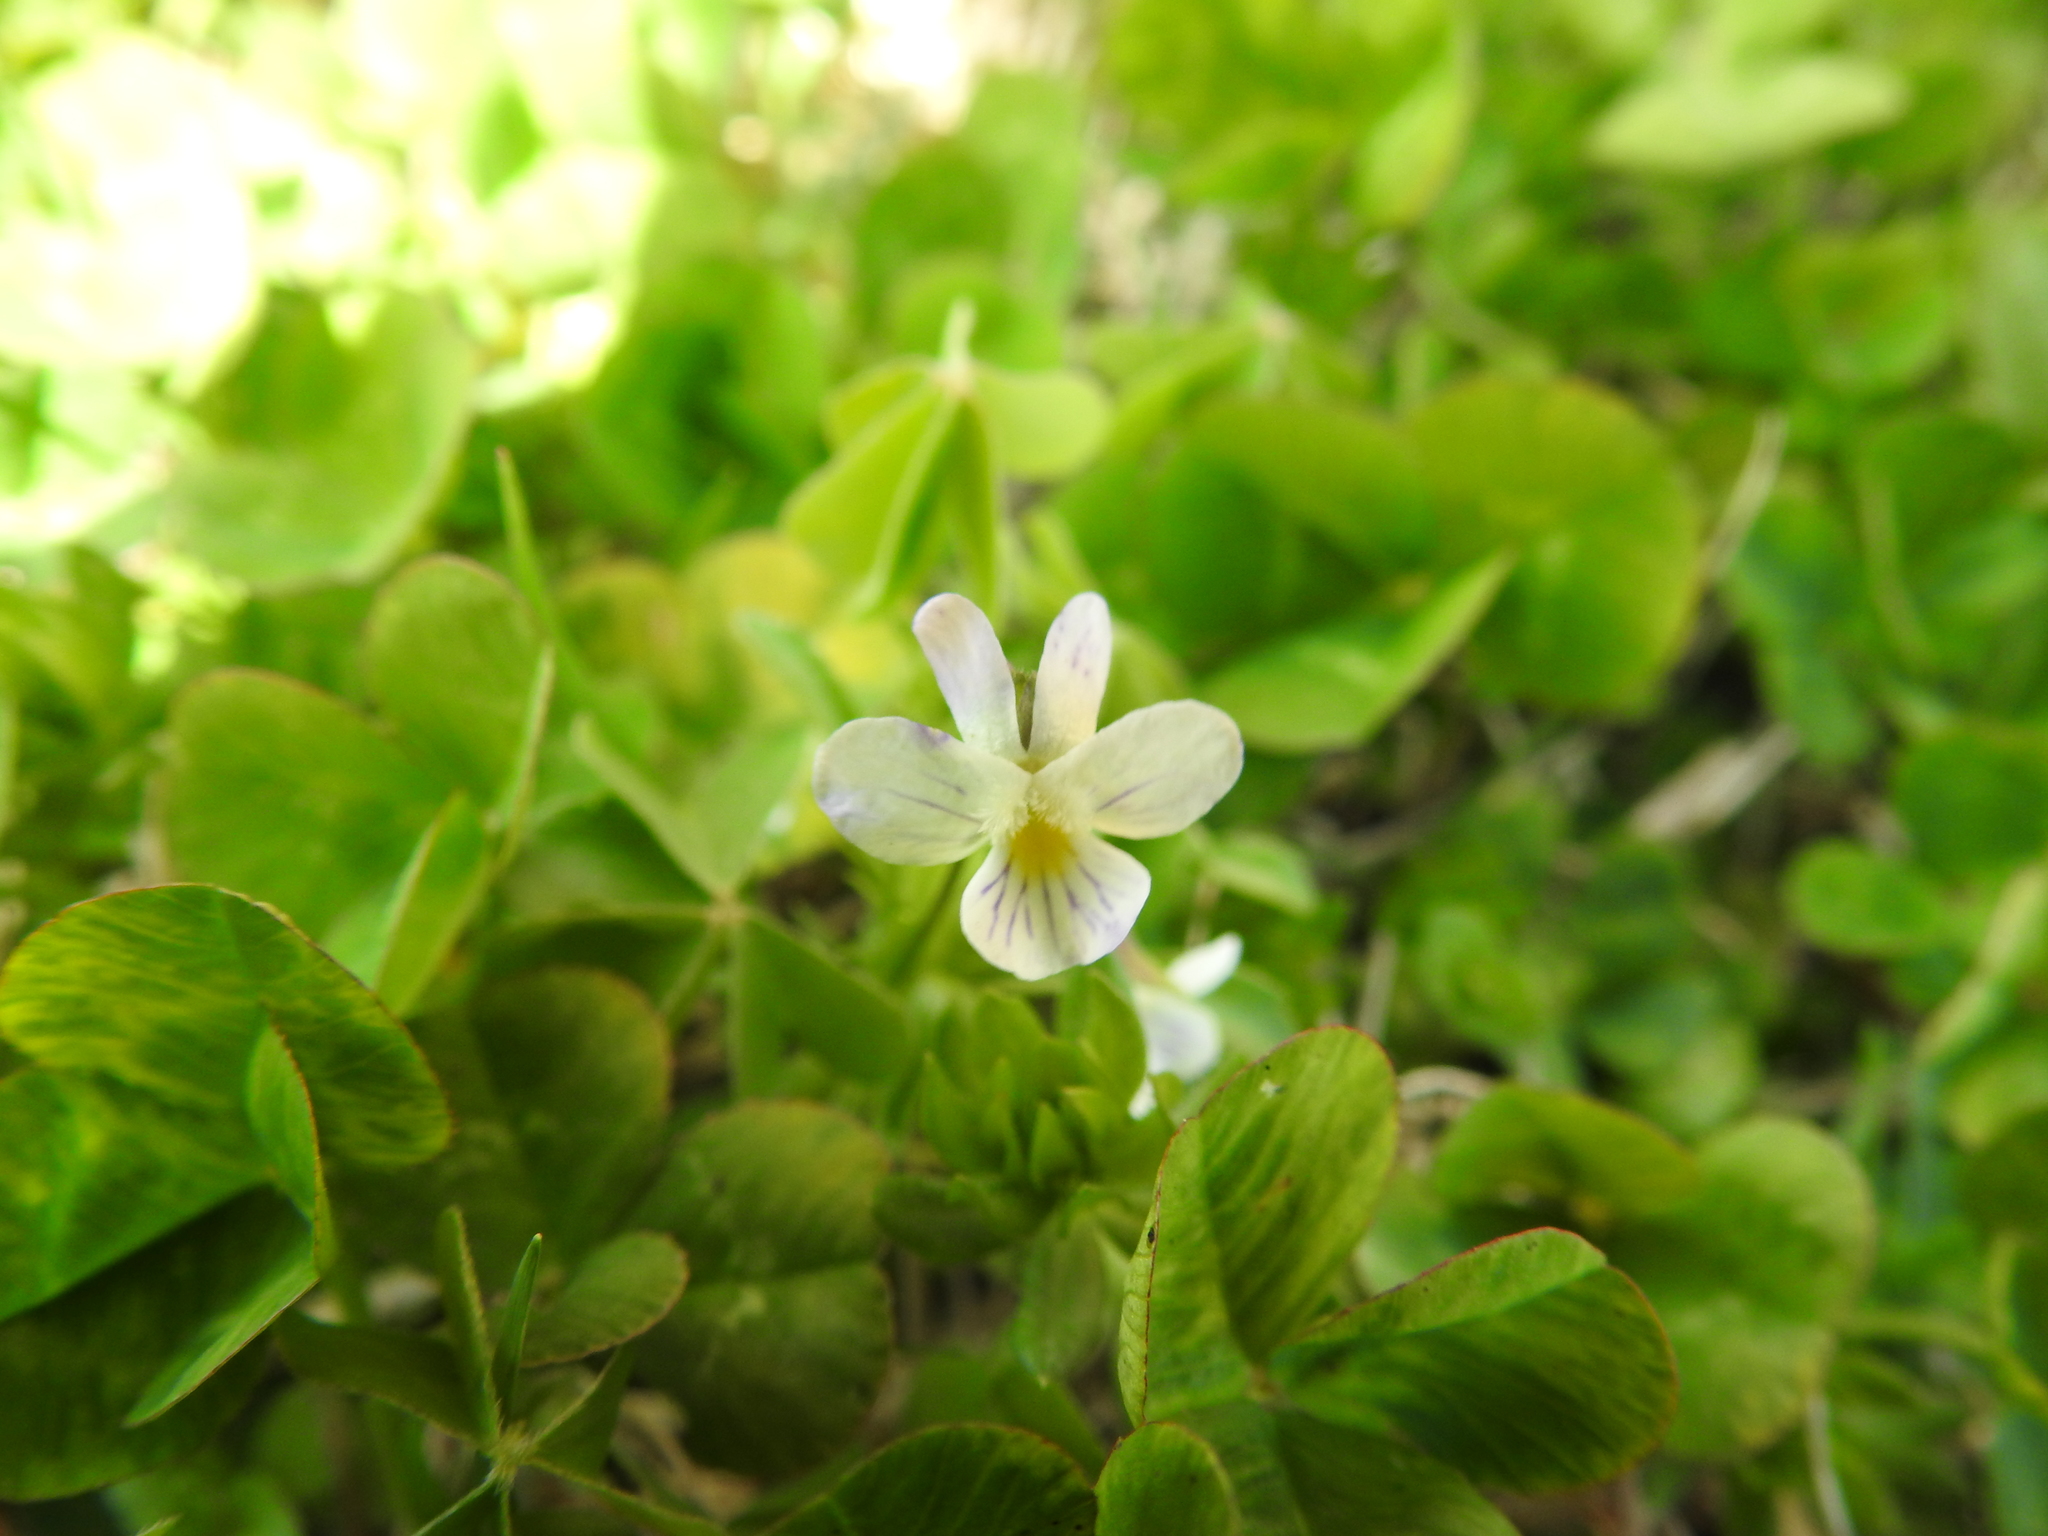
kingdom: Plantae
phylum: Tracheophyta
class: Magnoliopsida
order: Malpighiales
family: Violaceae
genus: Viola
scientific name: Viola rafinesquei
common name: American field pansy
